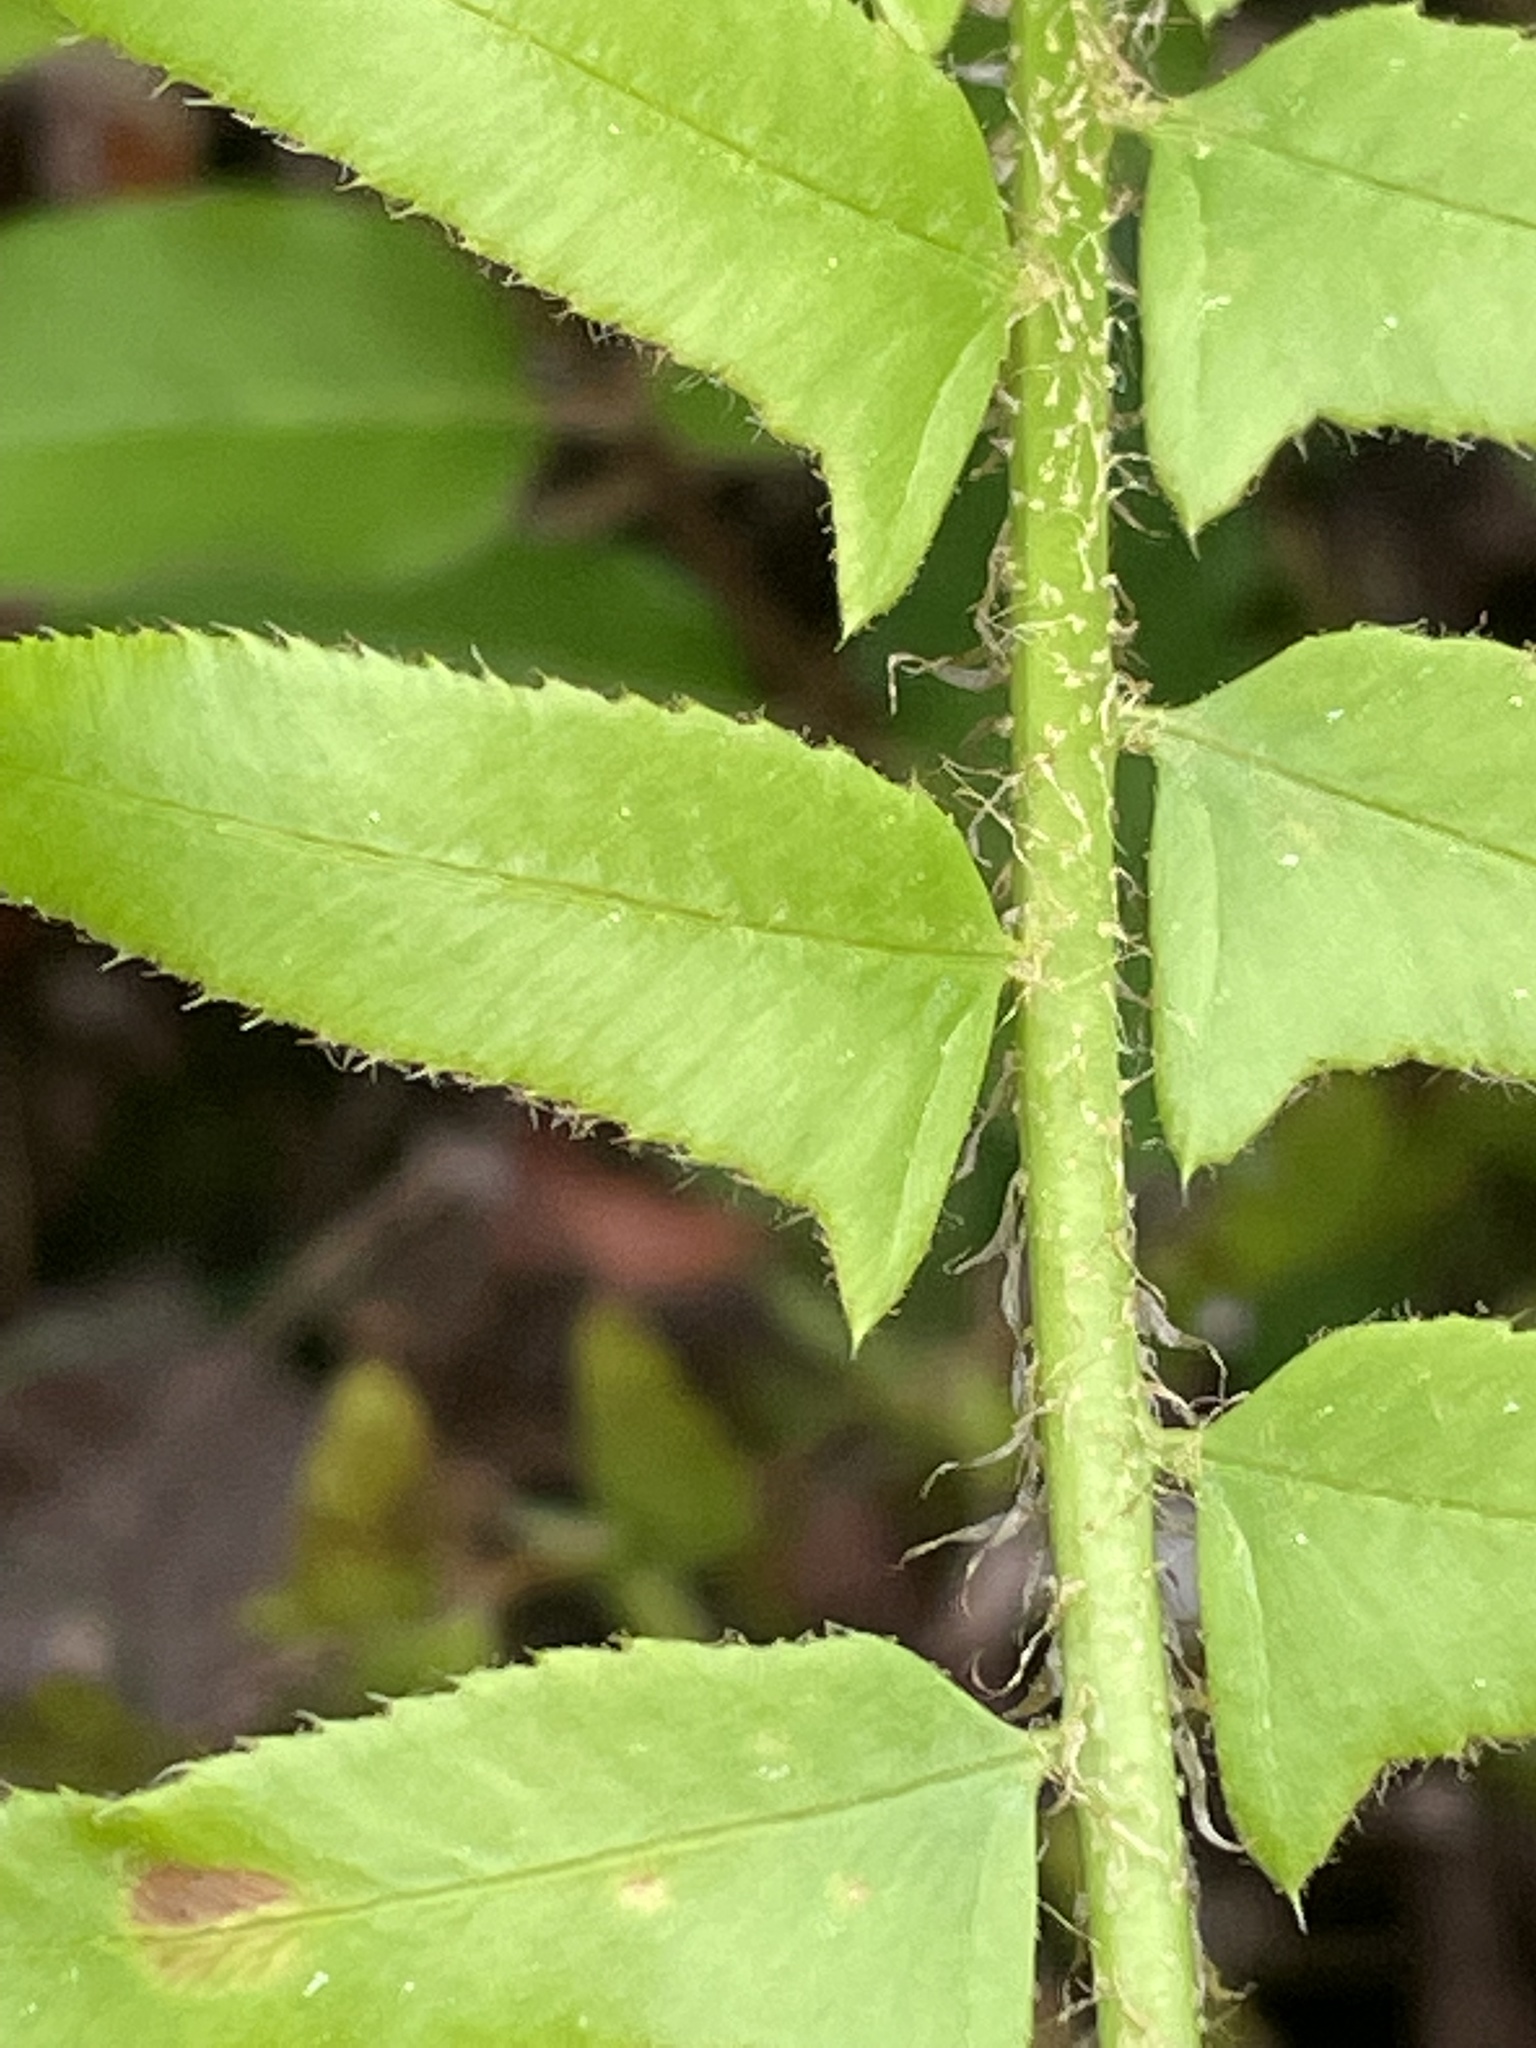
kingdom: Plantae
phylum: Tracheophyta
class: Polypodiopsida
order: Polypodiales
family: Dryopteridaceae
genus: Polystichum
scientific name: Polystichum acrostichoides
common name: Christmas fern
